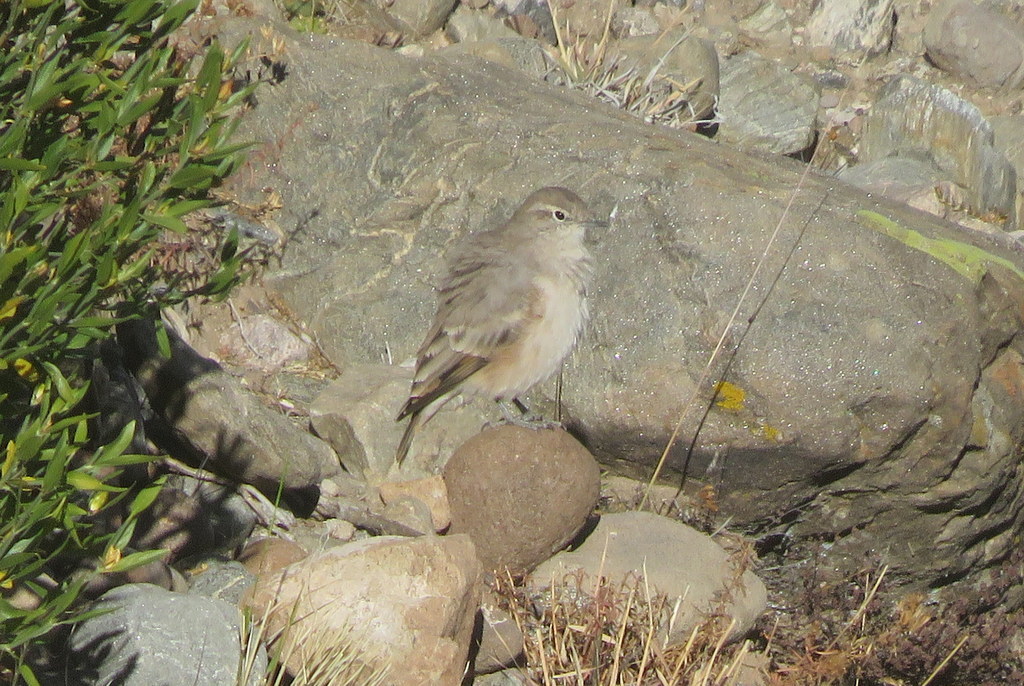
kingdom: Animalia
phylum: Chordata
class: Aves
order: Passeriformes
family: Furnariidae
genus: Geositta
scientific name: Geositta rufipennis
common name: Rufous-banded miner
